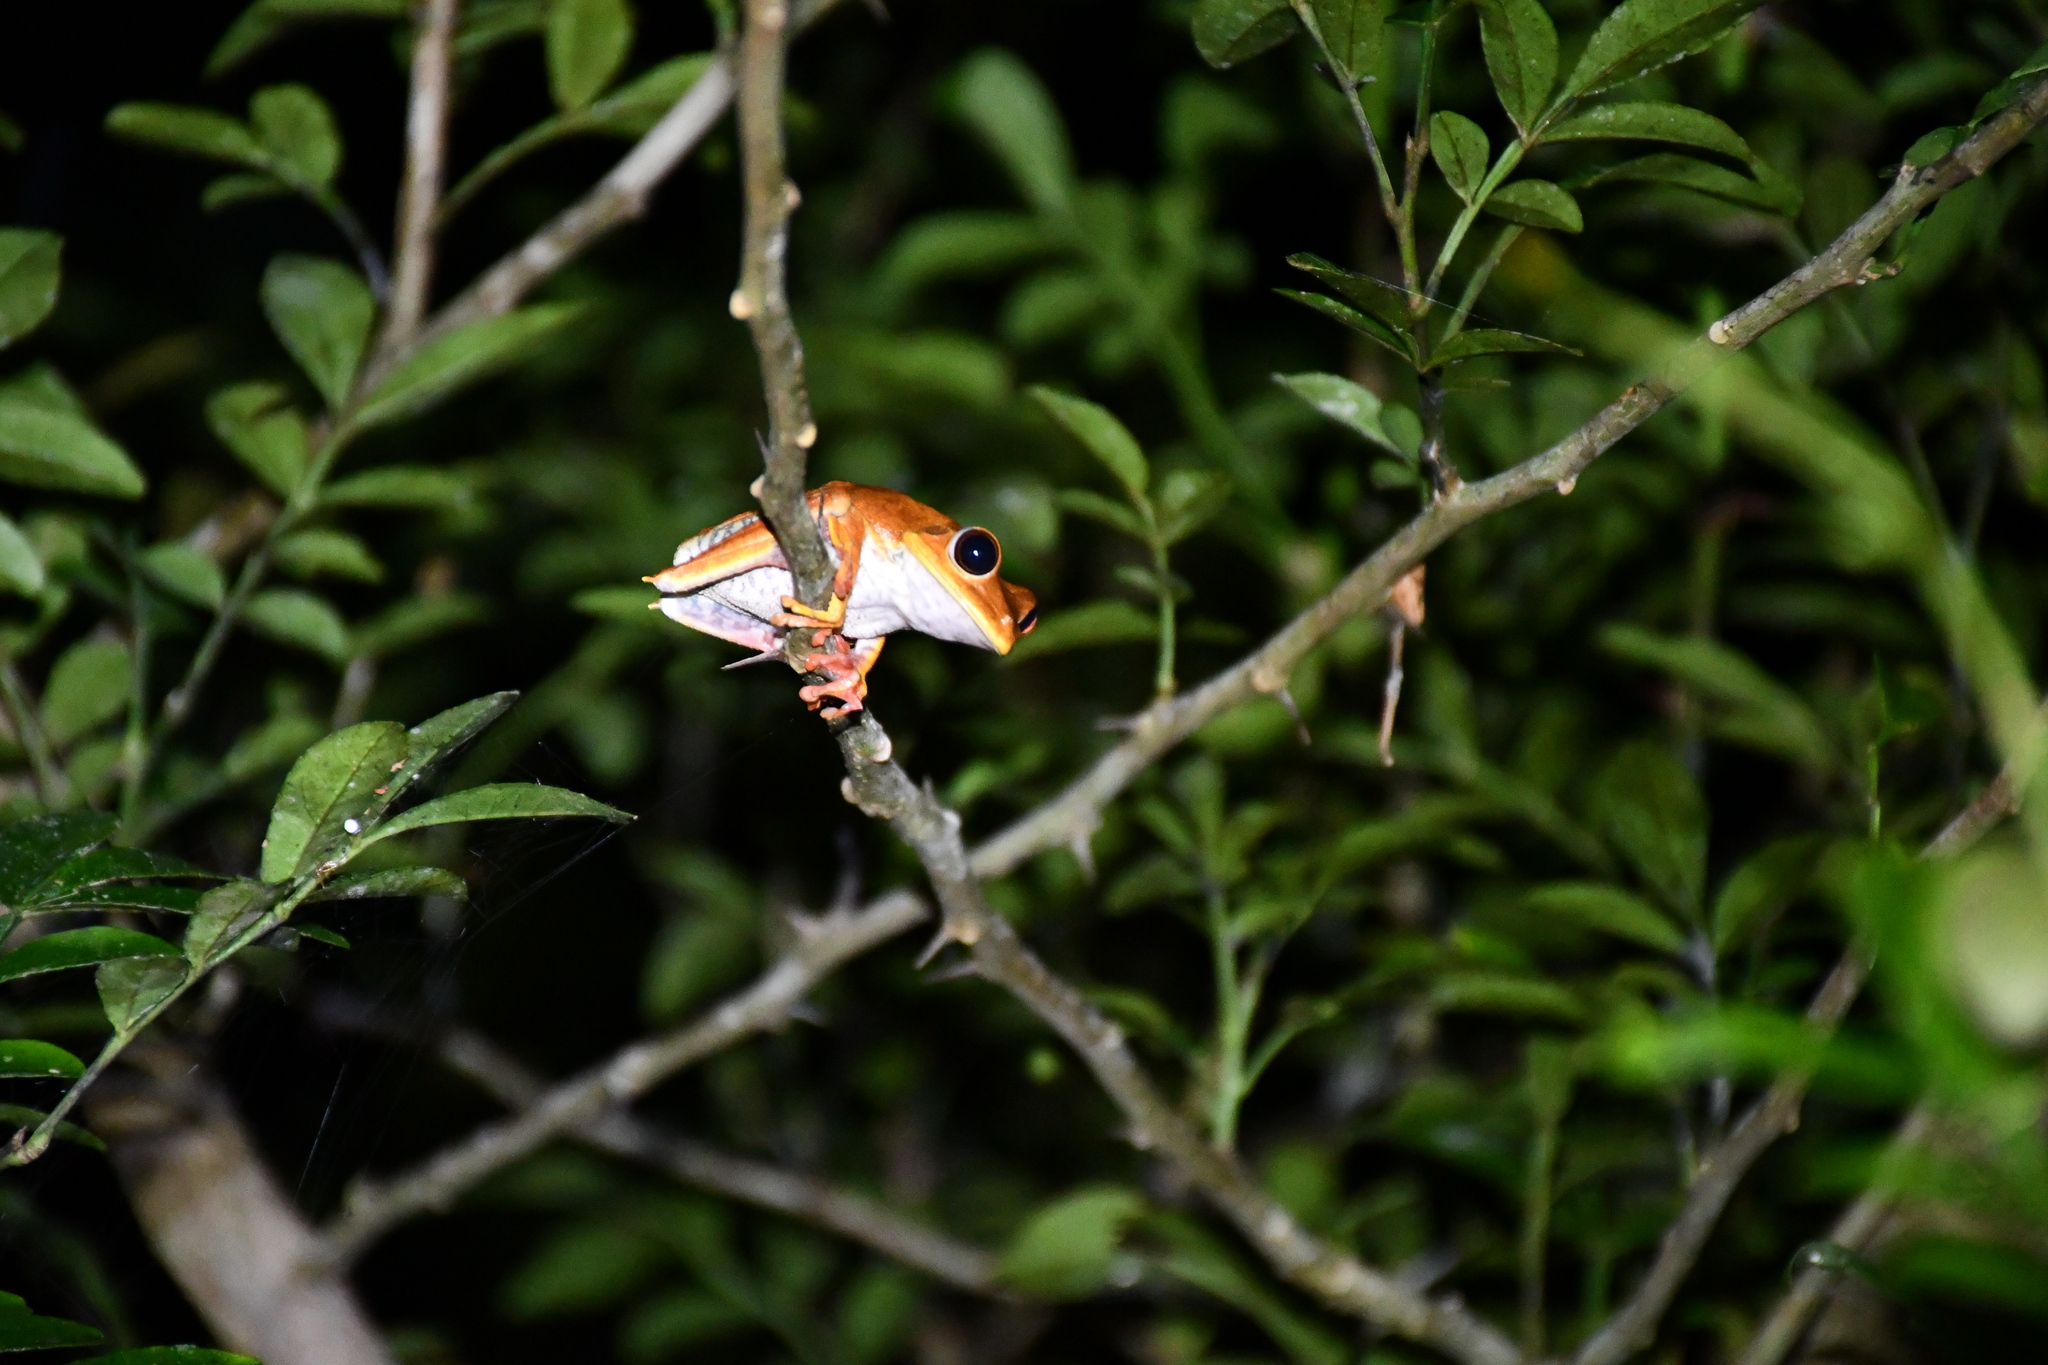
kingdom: Animalia
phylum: Chordata
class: Amphibia
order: Anura
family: Hylidae
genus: Boana
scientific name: Boana geographica
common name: Map treefrog
